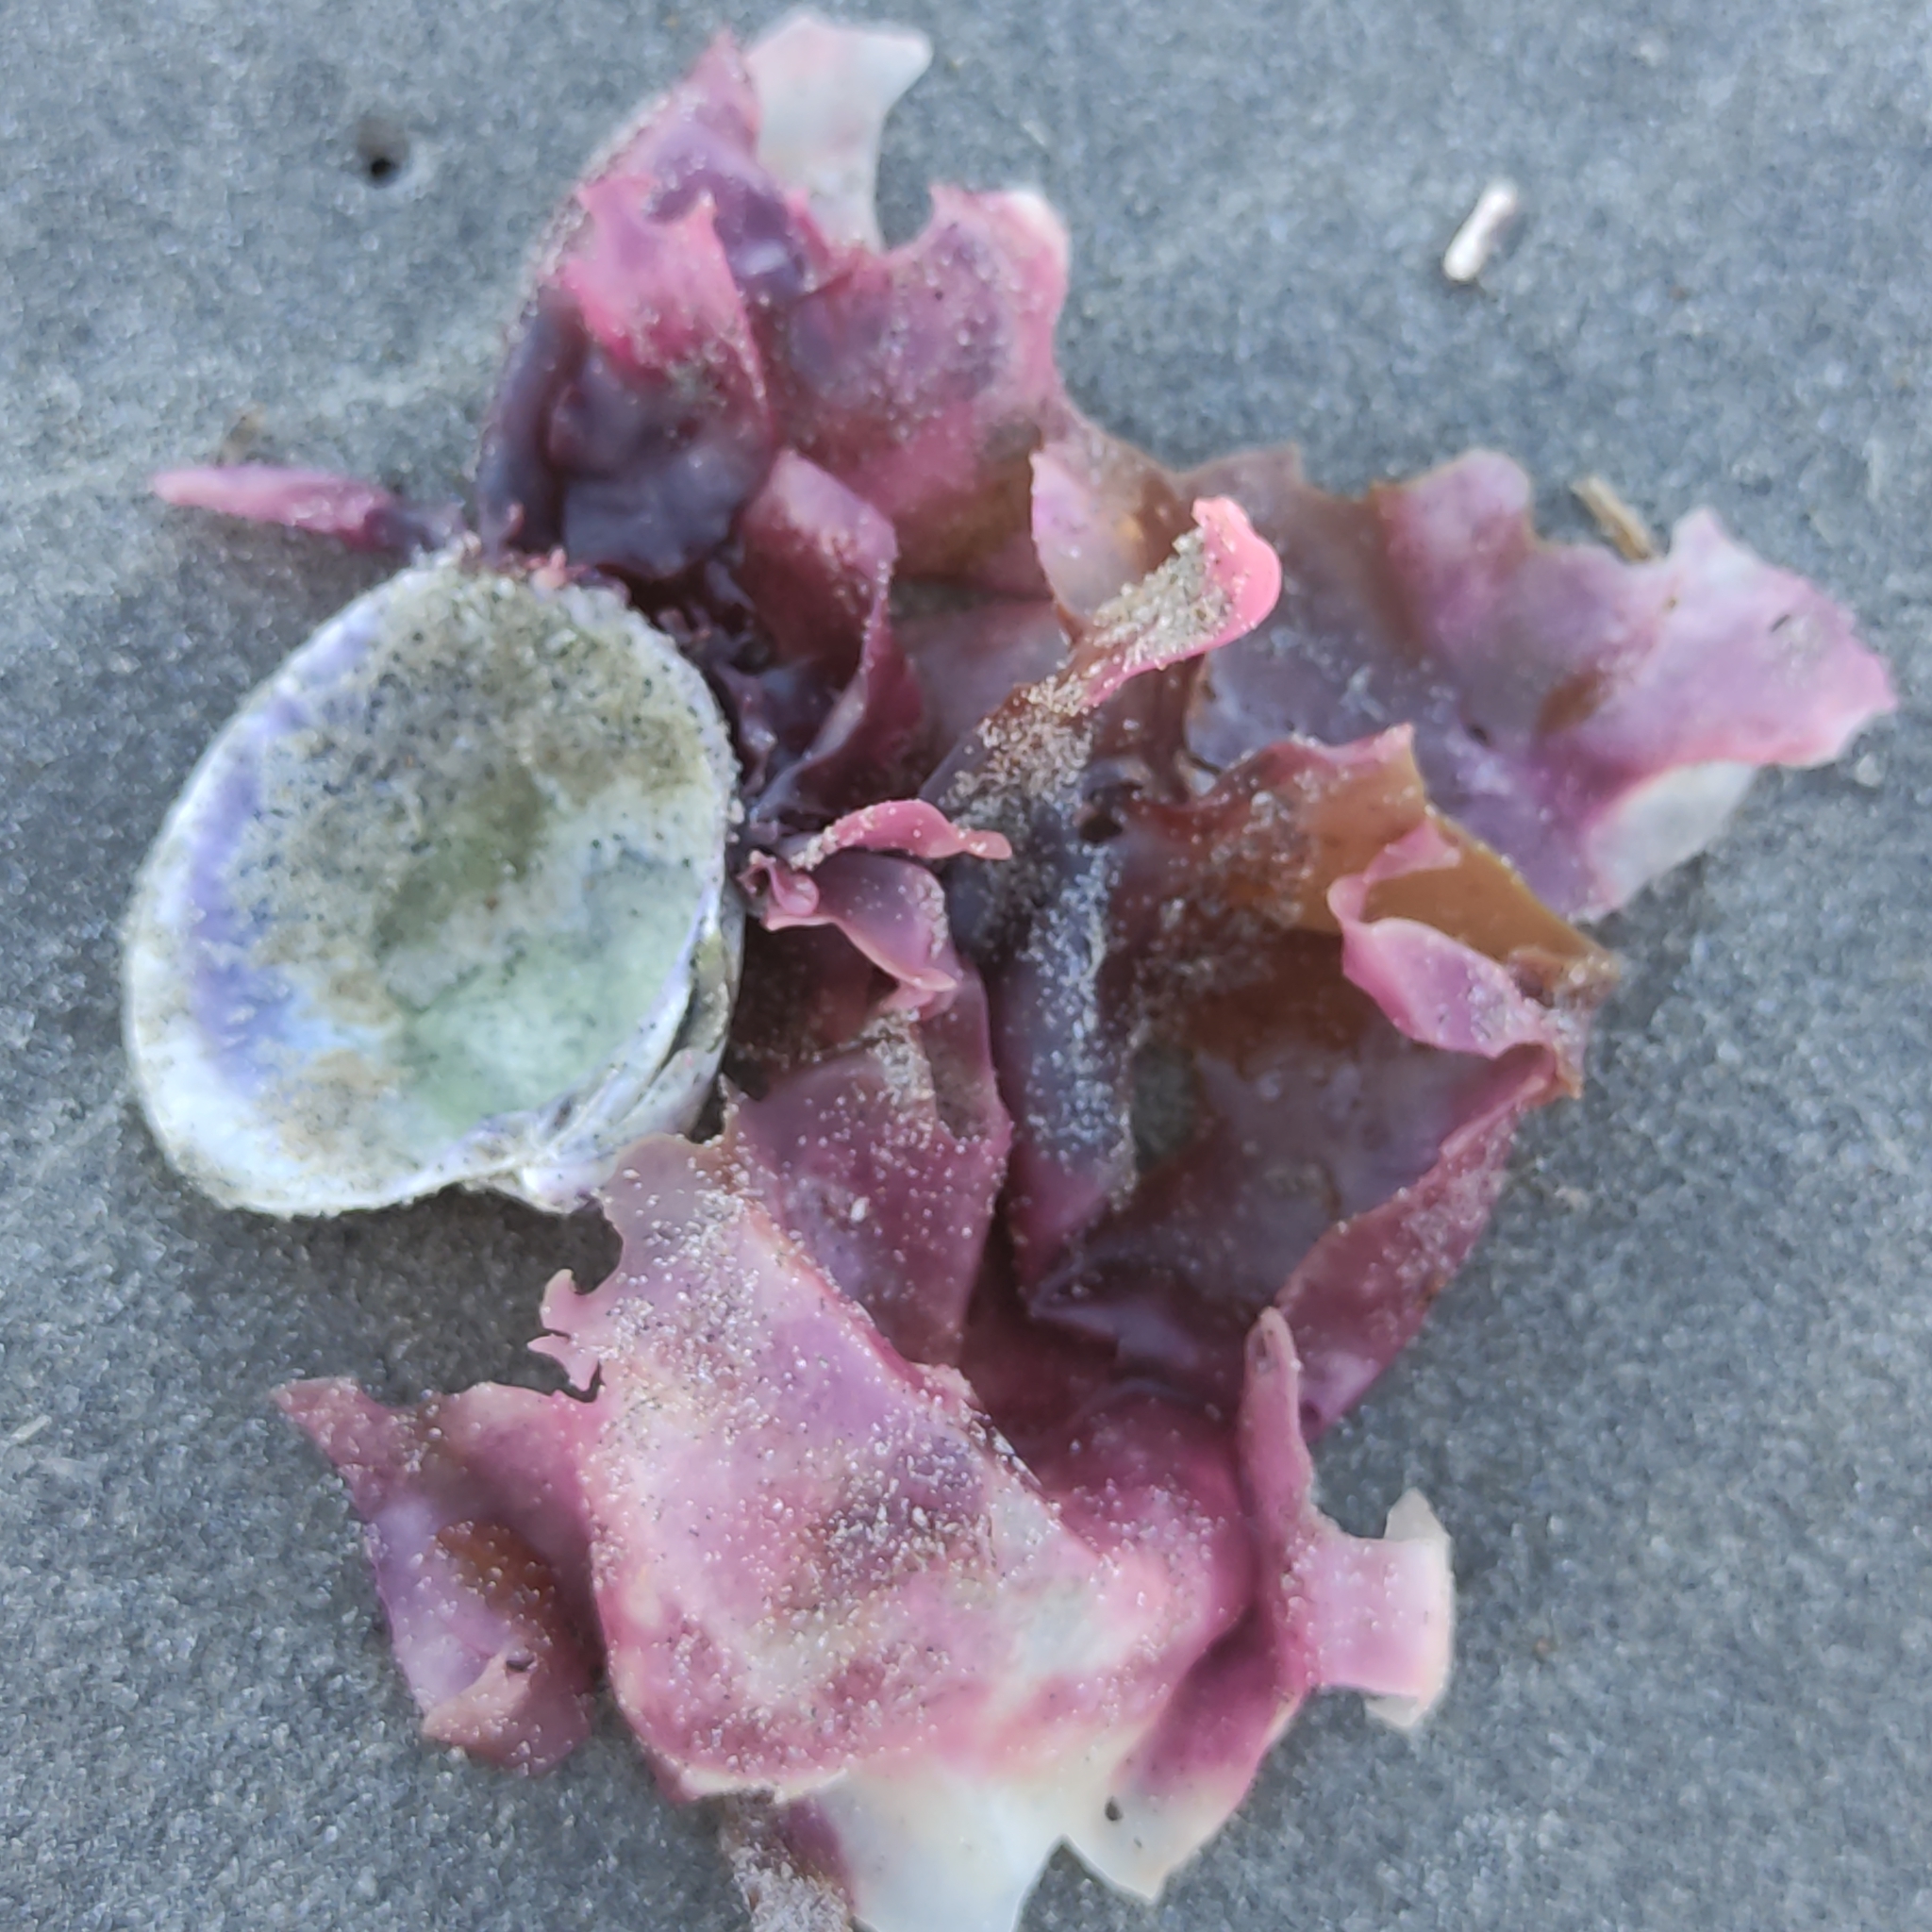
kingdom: Animalia
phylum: Mollusca
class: Bivalvia
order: Venerida
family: Veneridae
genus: Austrovenus
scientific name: Austrovenus stutchburyi
